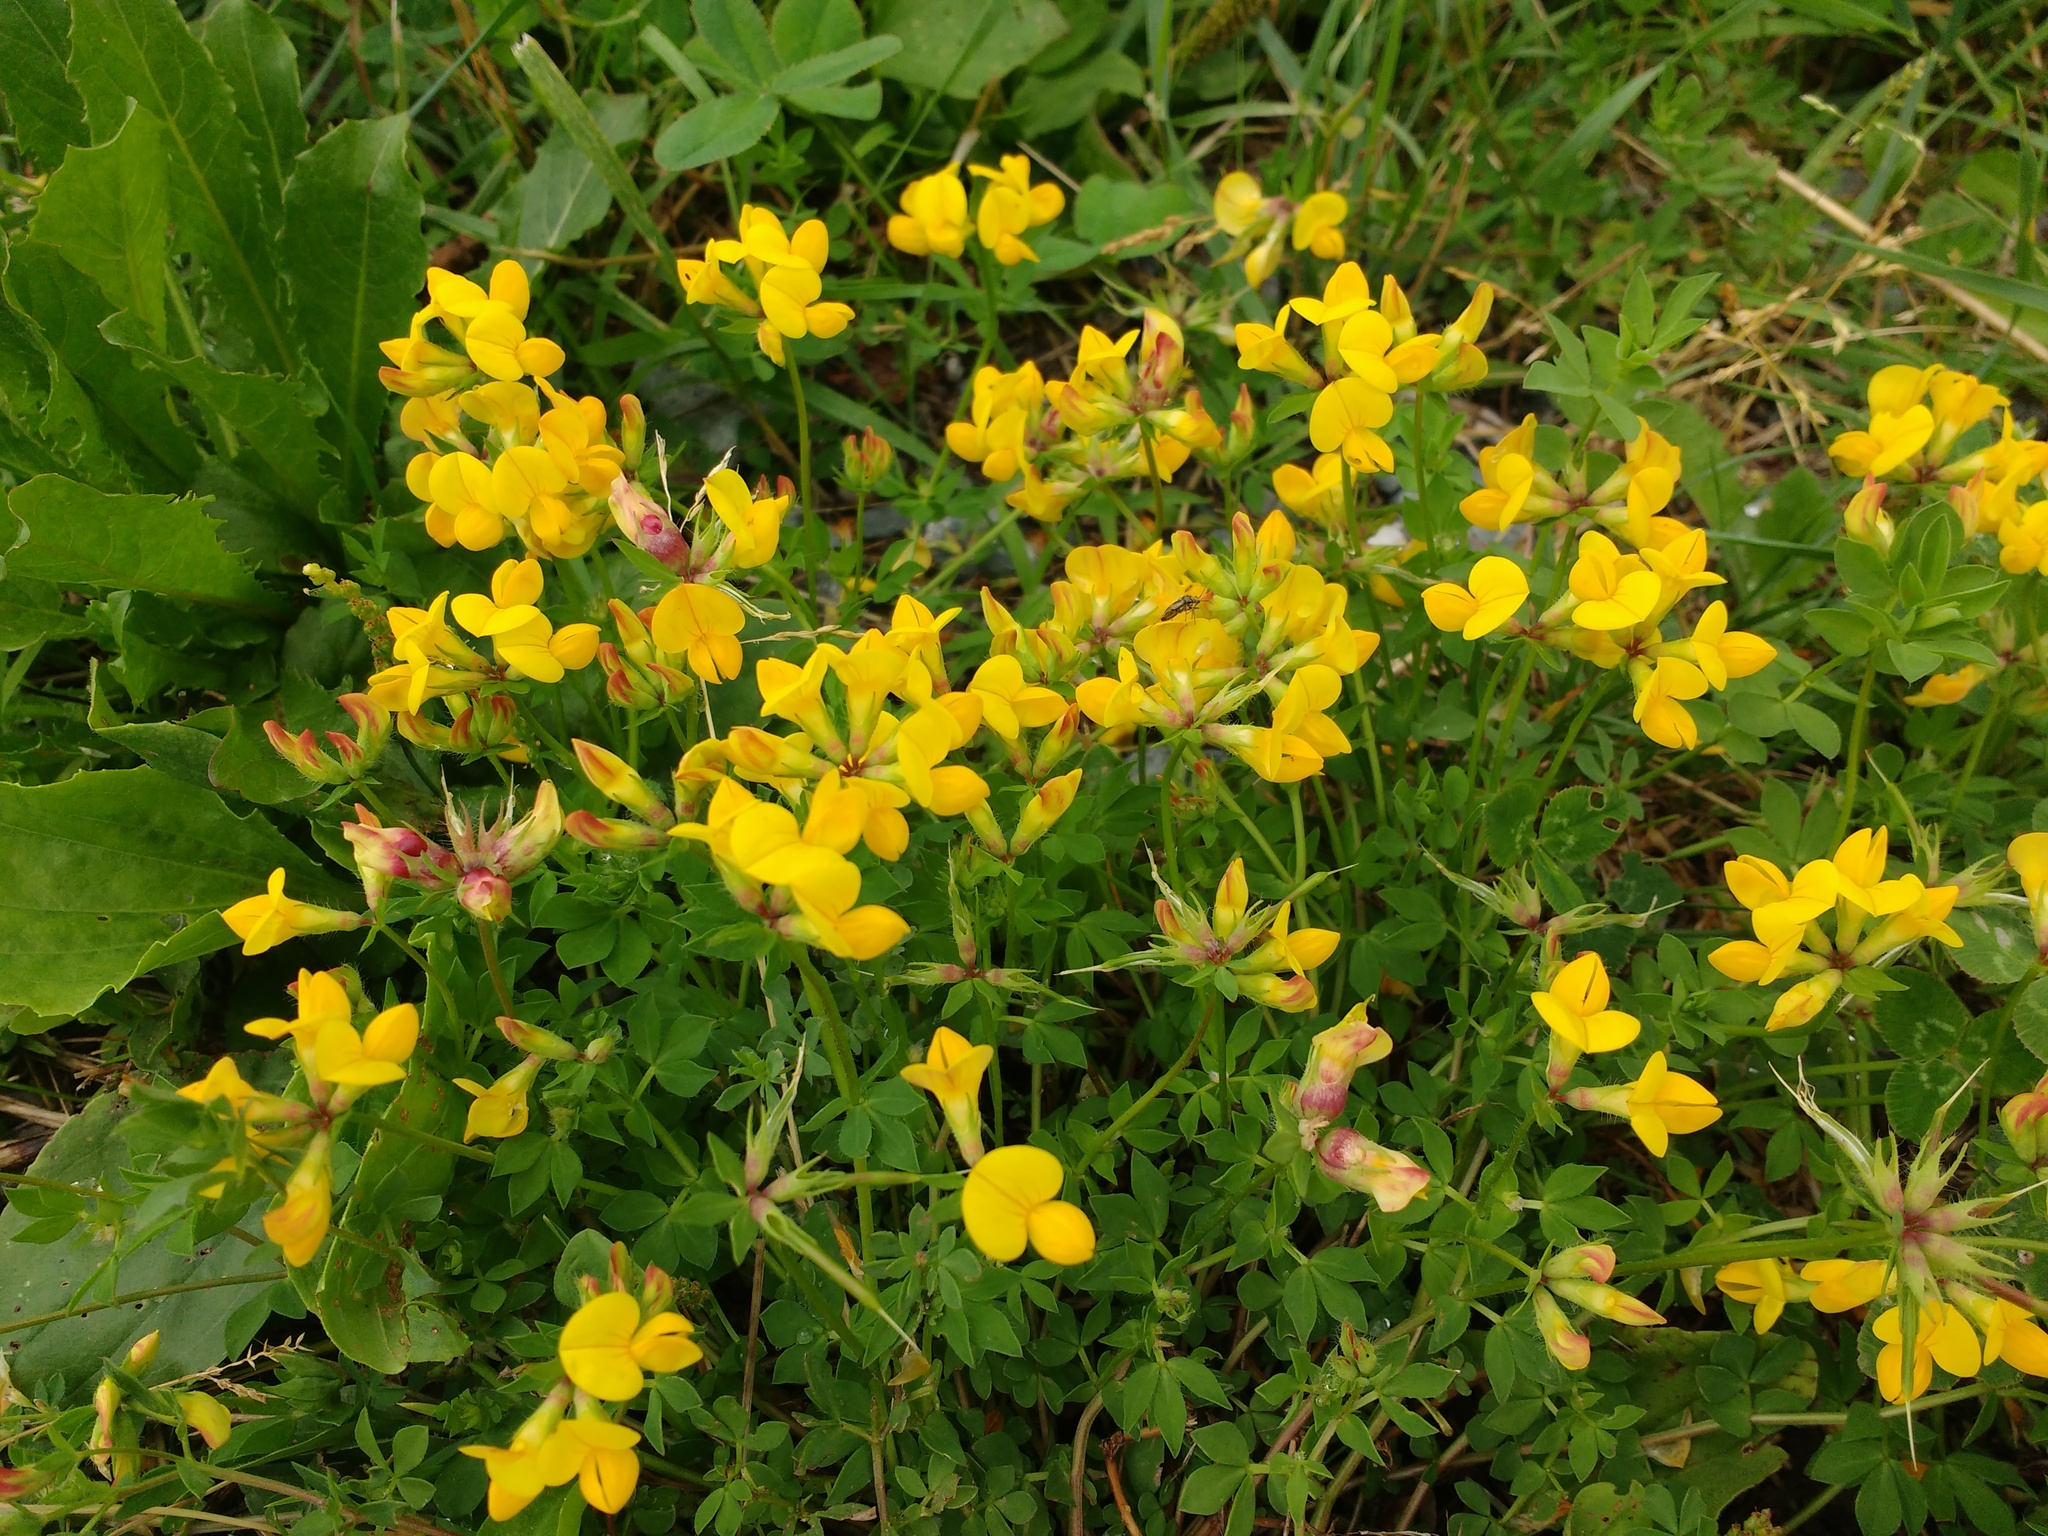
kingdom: Plantae
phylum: Tracheophyta
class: Magnoliopsida
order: Fabales
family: Fabaceae
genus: Lotus
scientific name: Lotus corniculatus
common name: Common bird's-foot-trefoil
